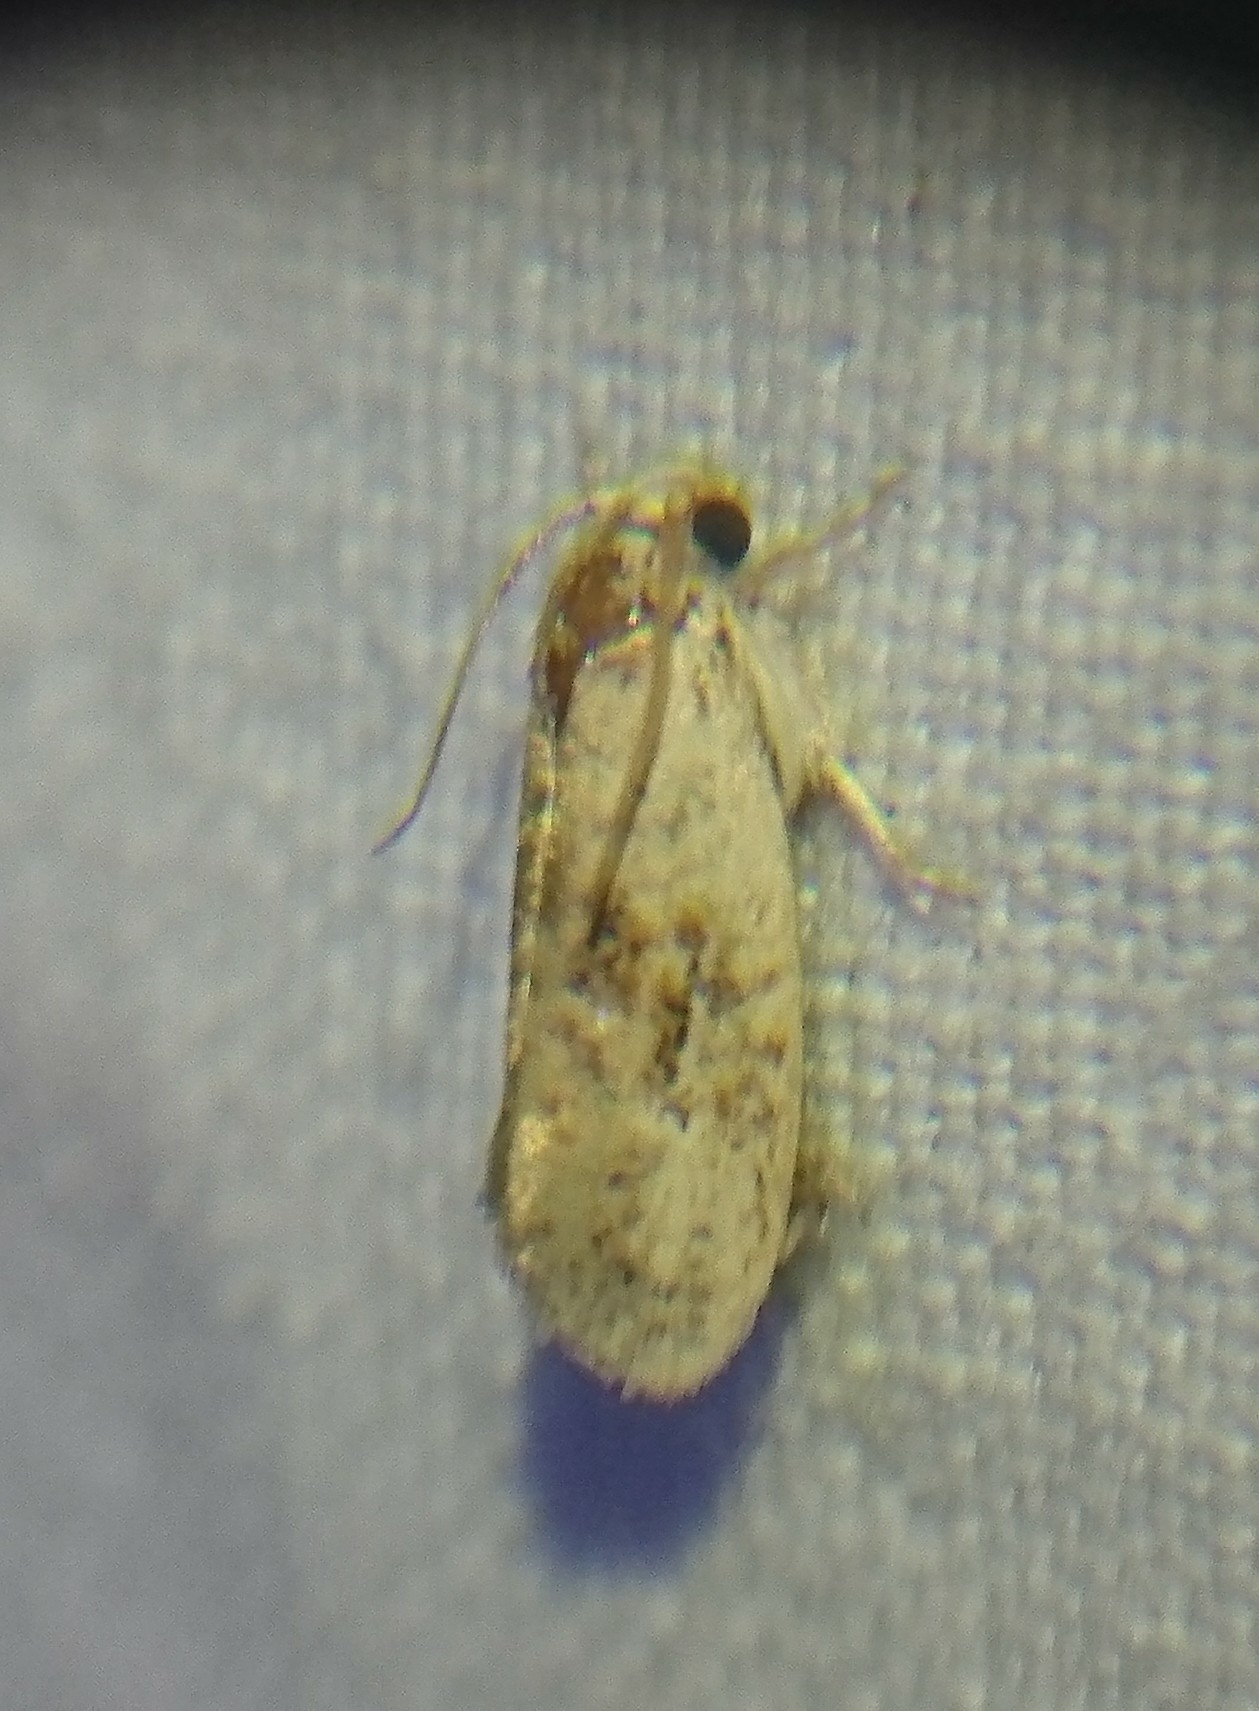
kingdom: Animalia
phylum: Arthropoda
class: Insecta
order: Lepidoptera
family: Tineidae
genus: Acrolophus
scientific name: Acrolophus mycetophagus
